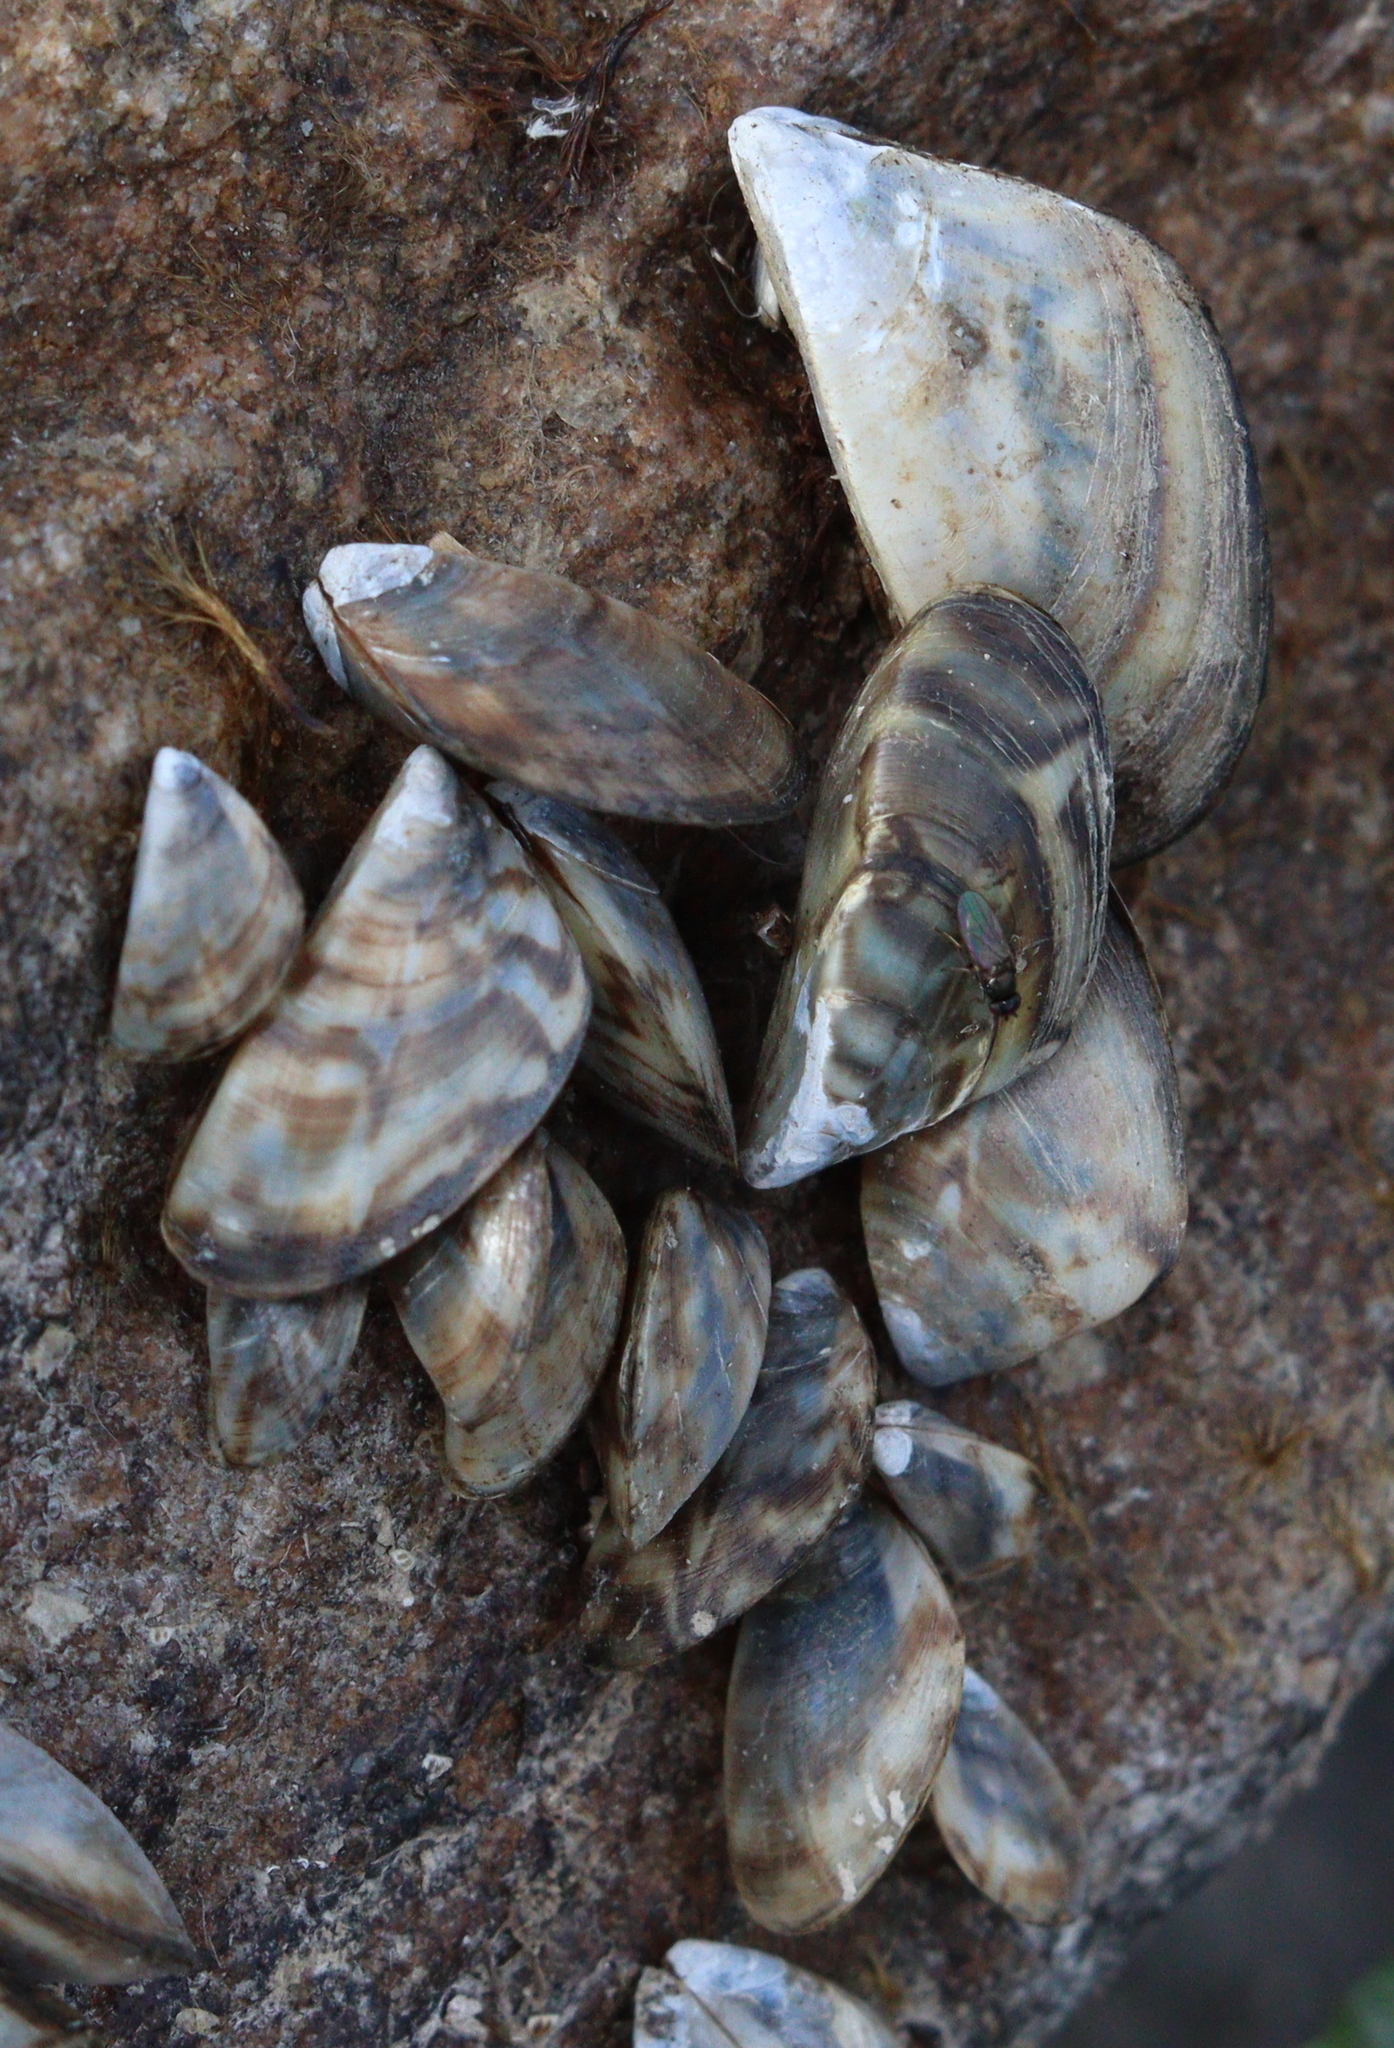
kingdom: Animalia
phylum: Mollusca
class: Bivalvia
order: Myida
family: Dreissenidae
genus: Dreissena
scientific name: Dreissena polymorpha
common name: Zebra mussel
